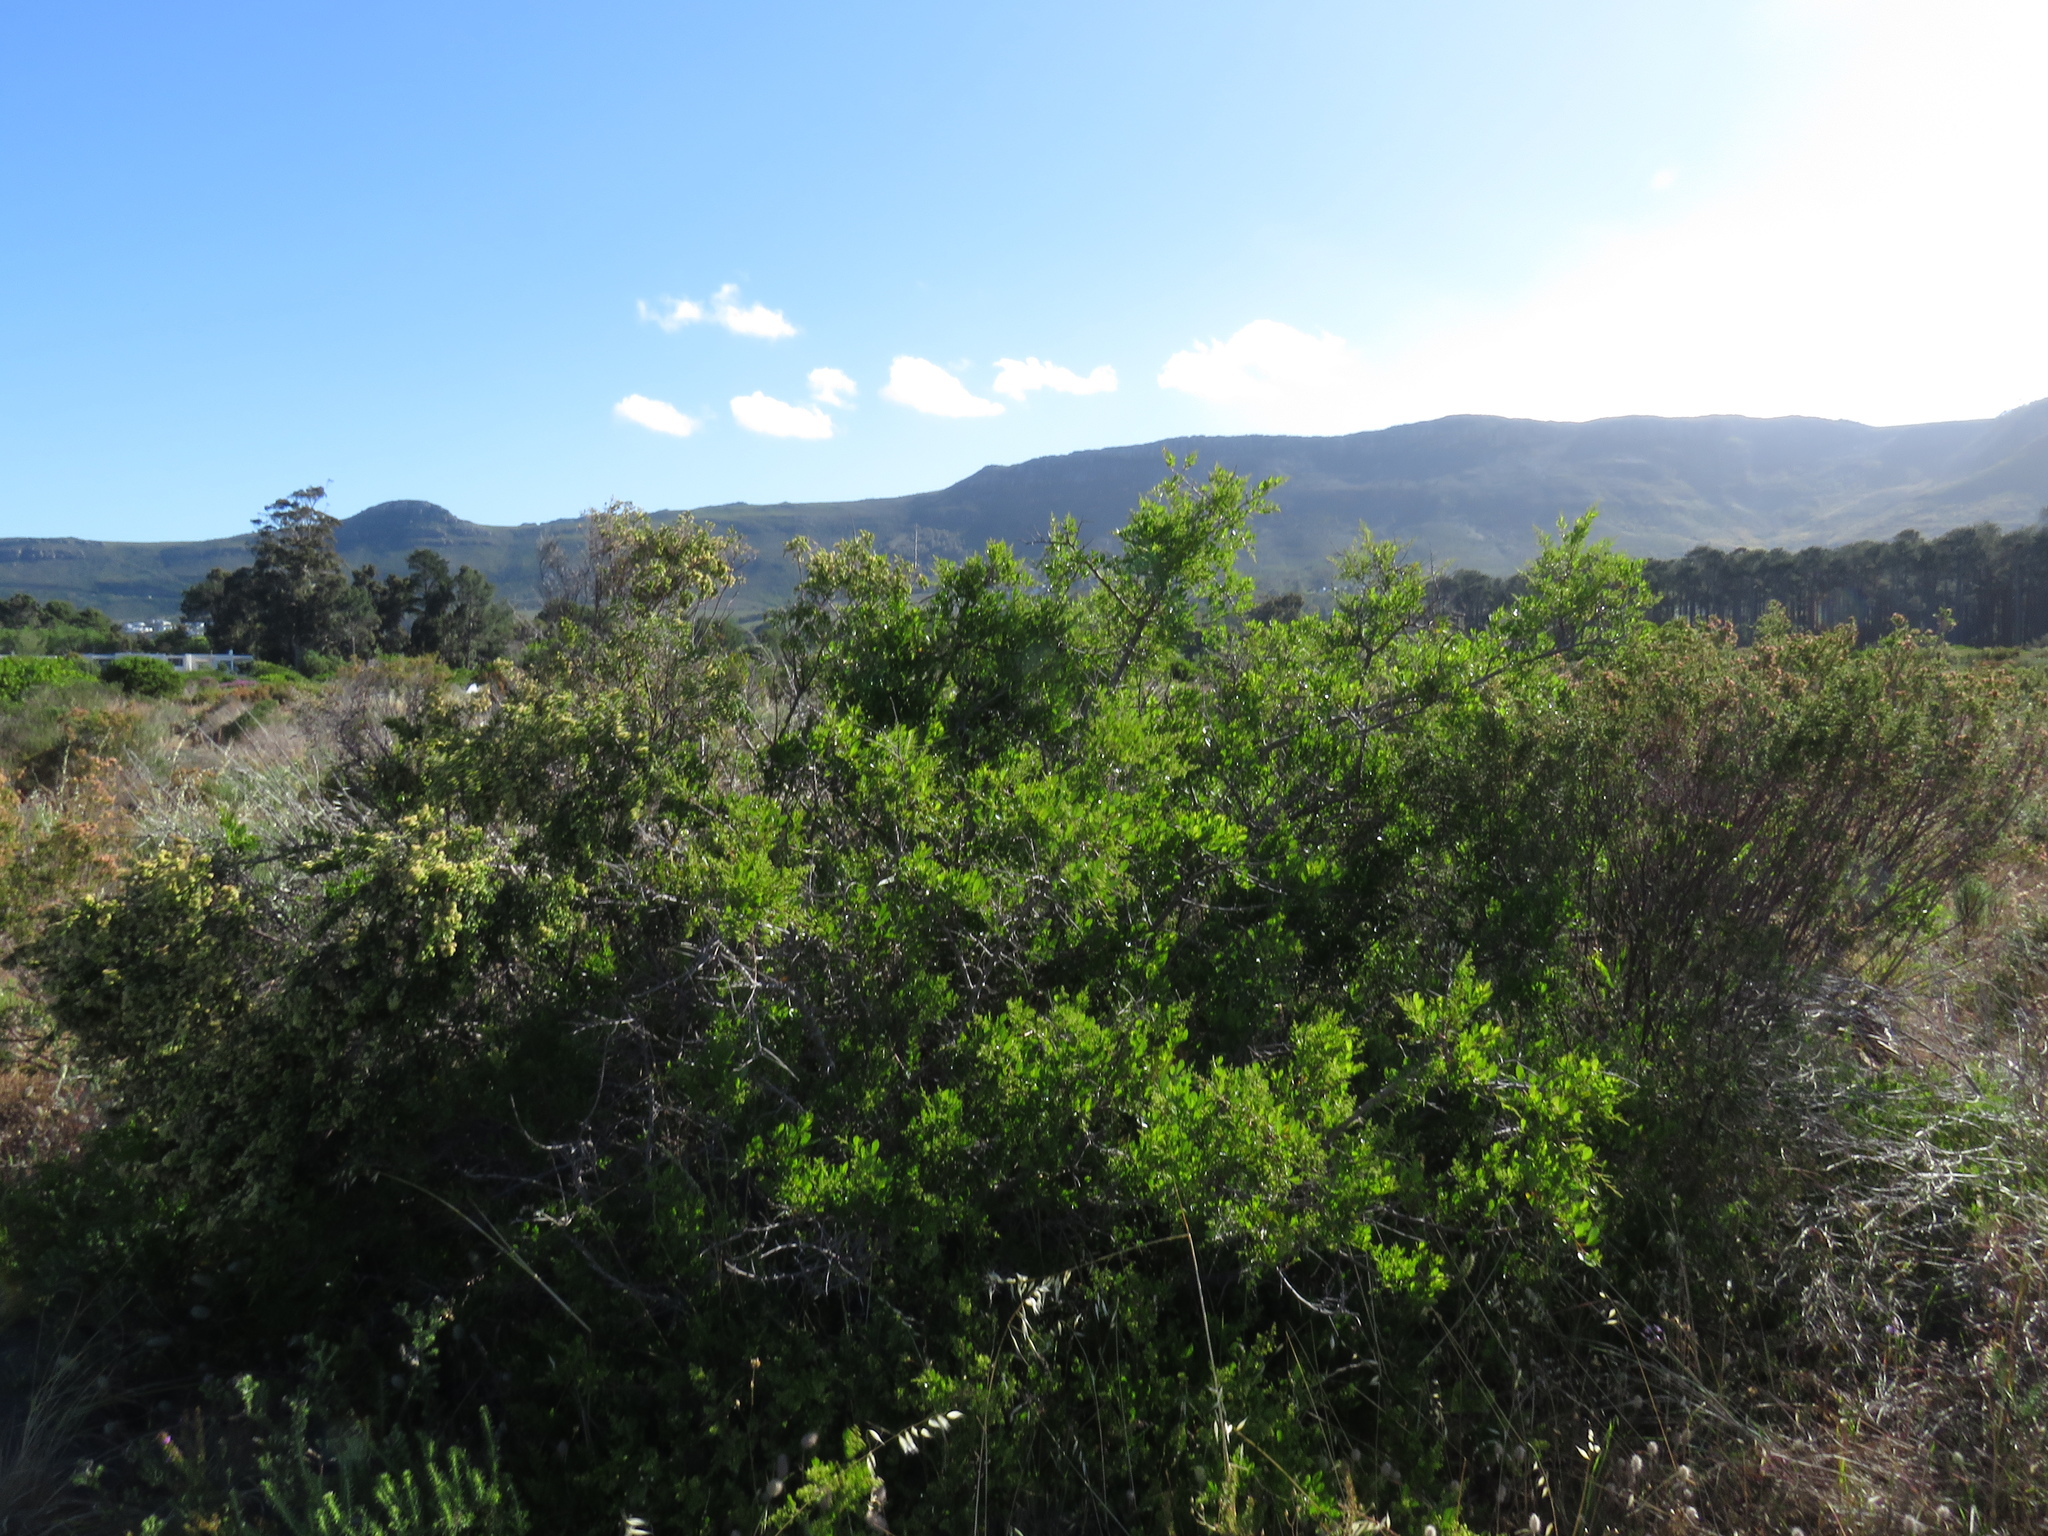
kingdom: Plantae
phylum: Tracheophyta
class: Magnoliopsida
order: Sapindales
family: Anacardiaceae
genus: Searsia
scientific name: Searsia laevigata
